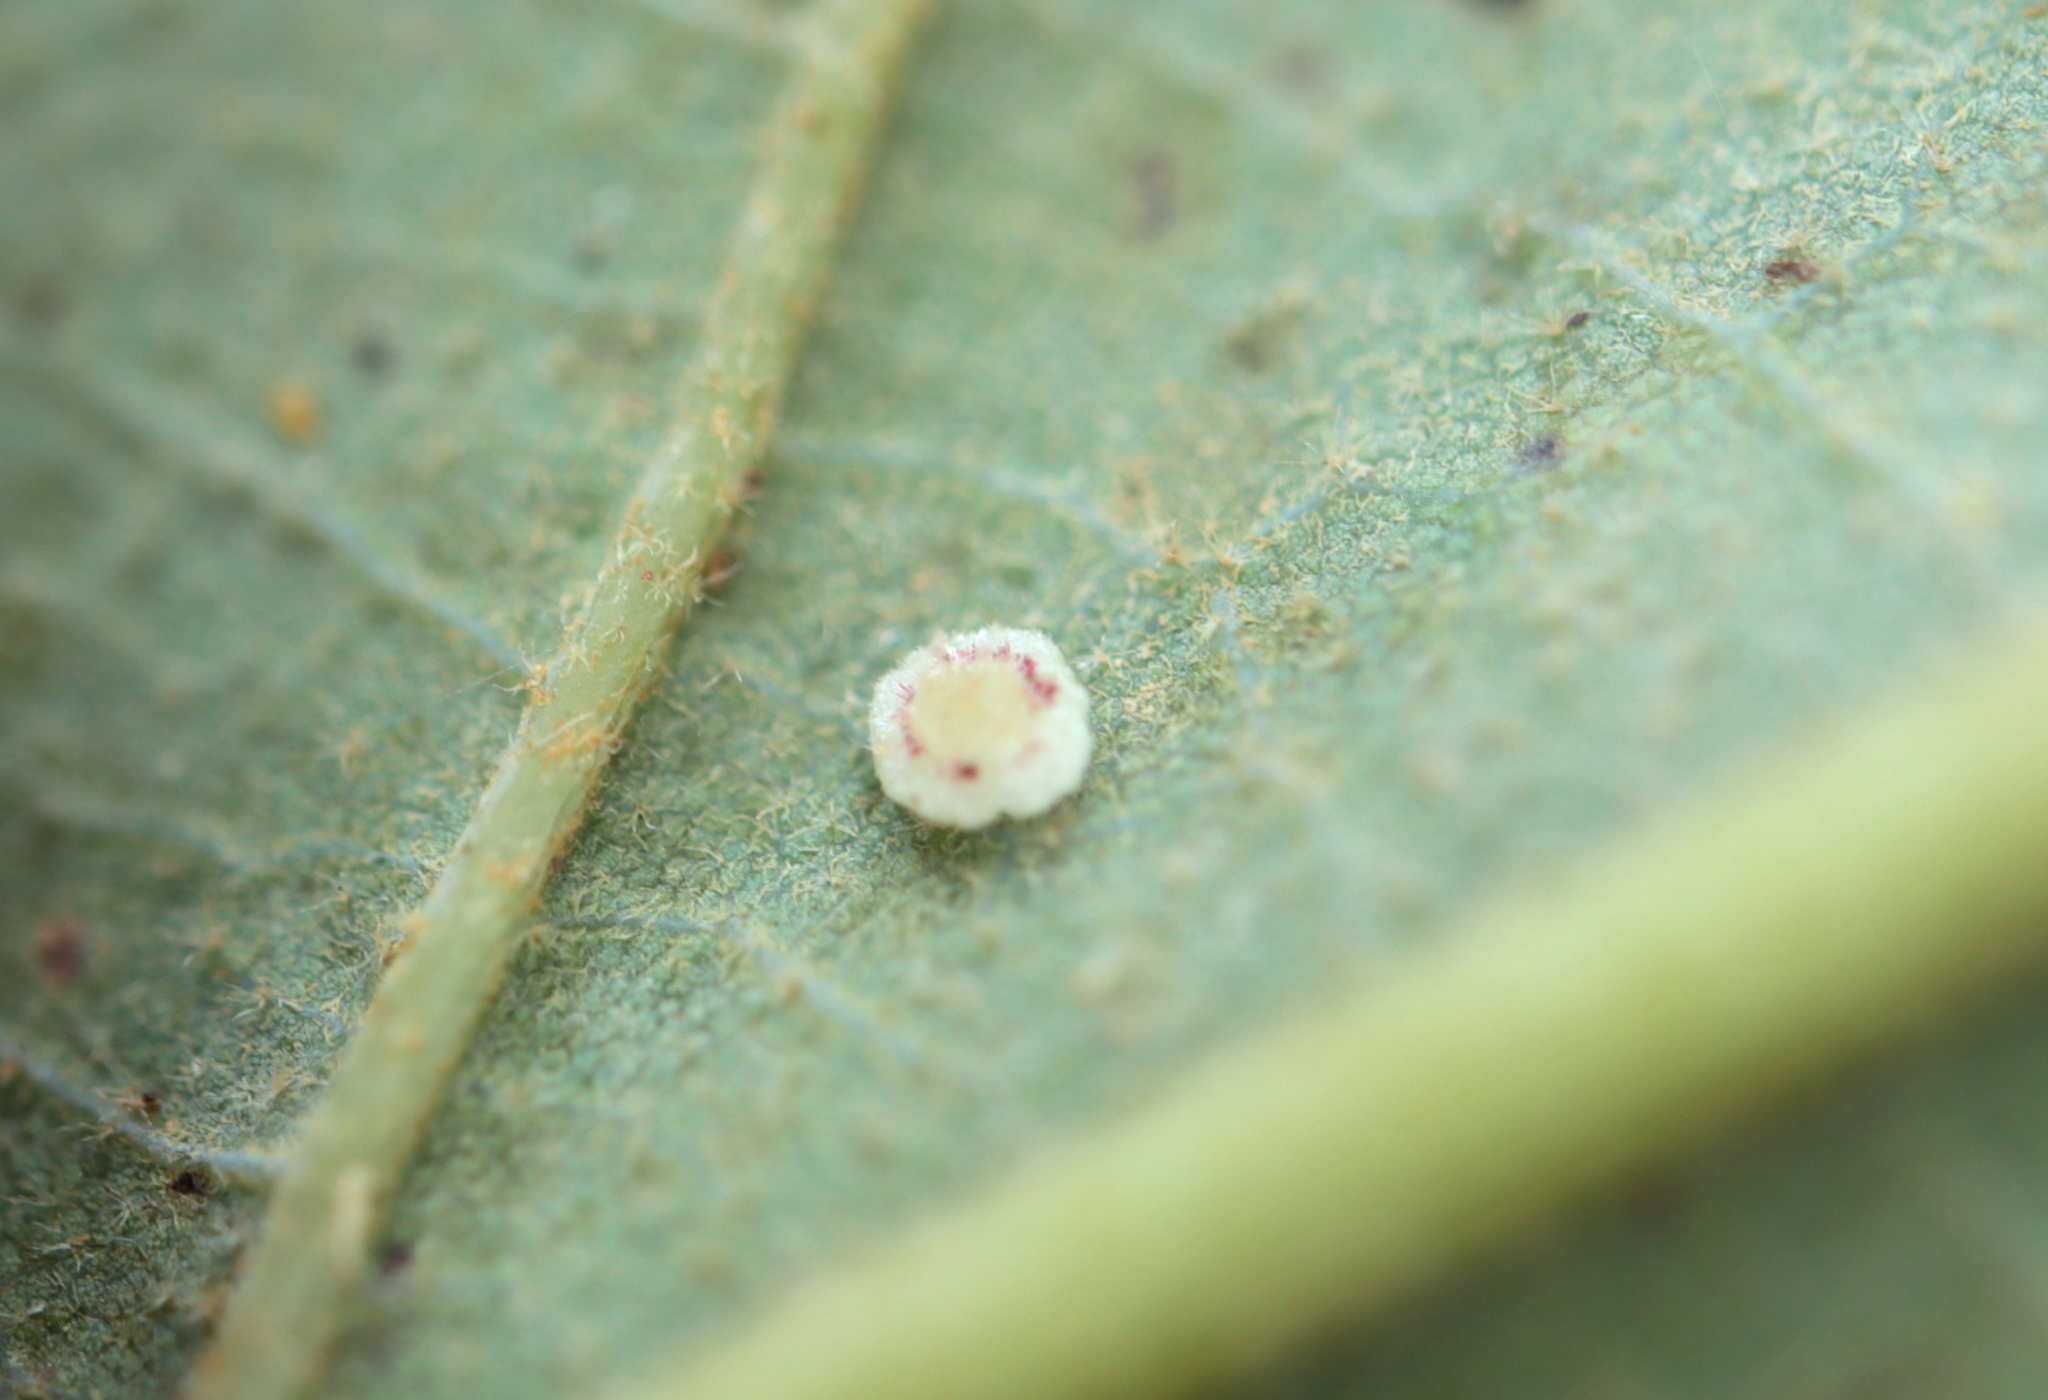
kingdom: Animalia
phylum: Arthropoda
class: Insecta
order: Hymenoptera
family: Cynipidae
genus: Neuroterus
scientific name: Neuroterus
